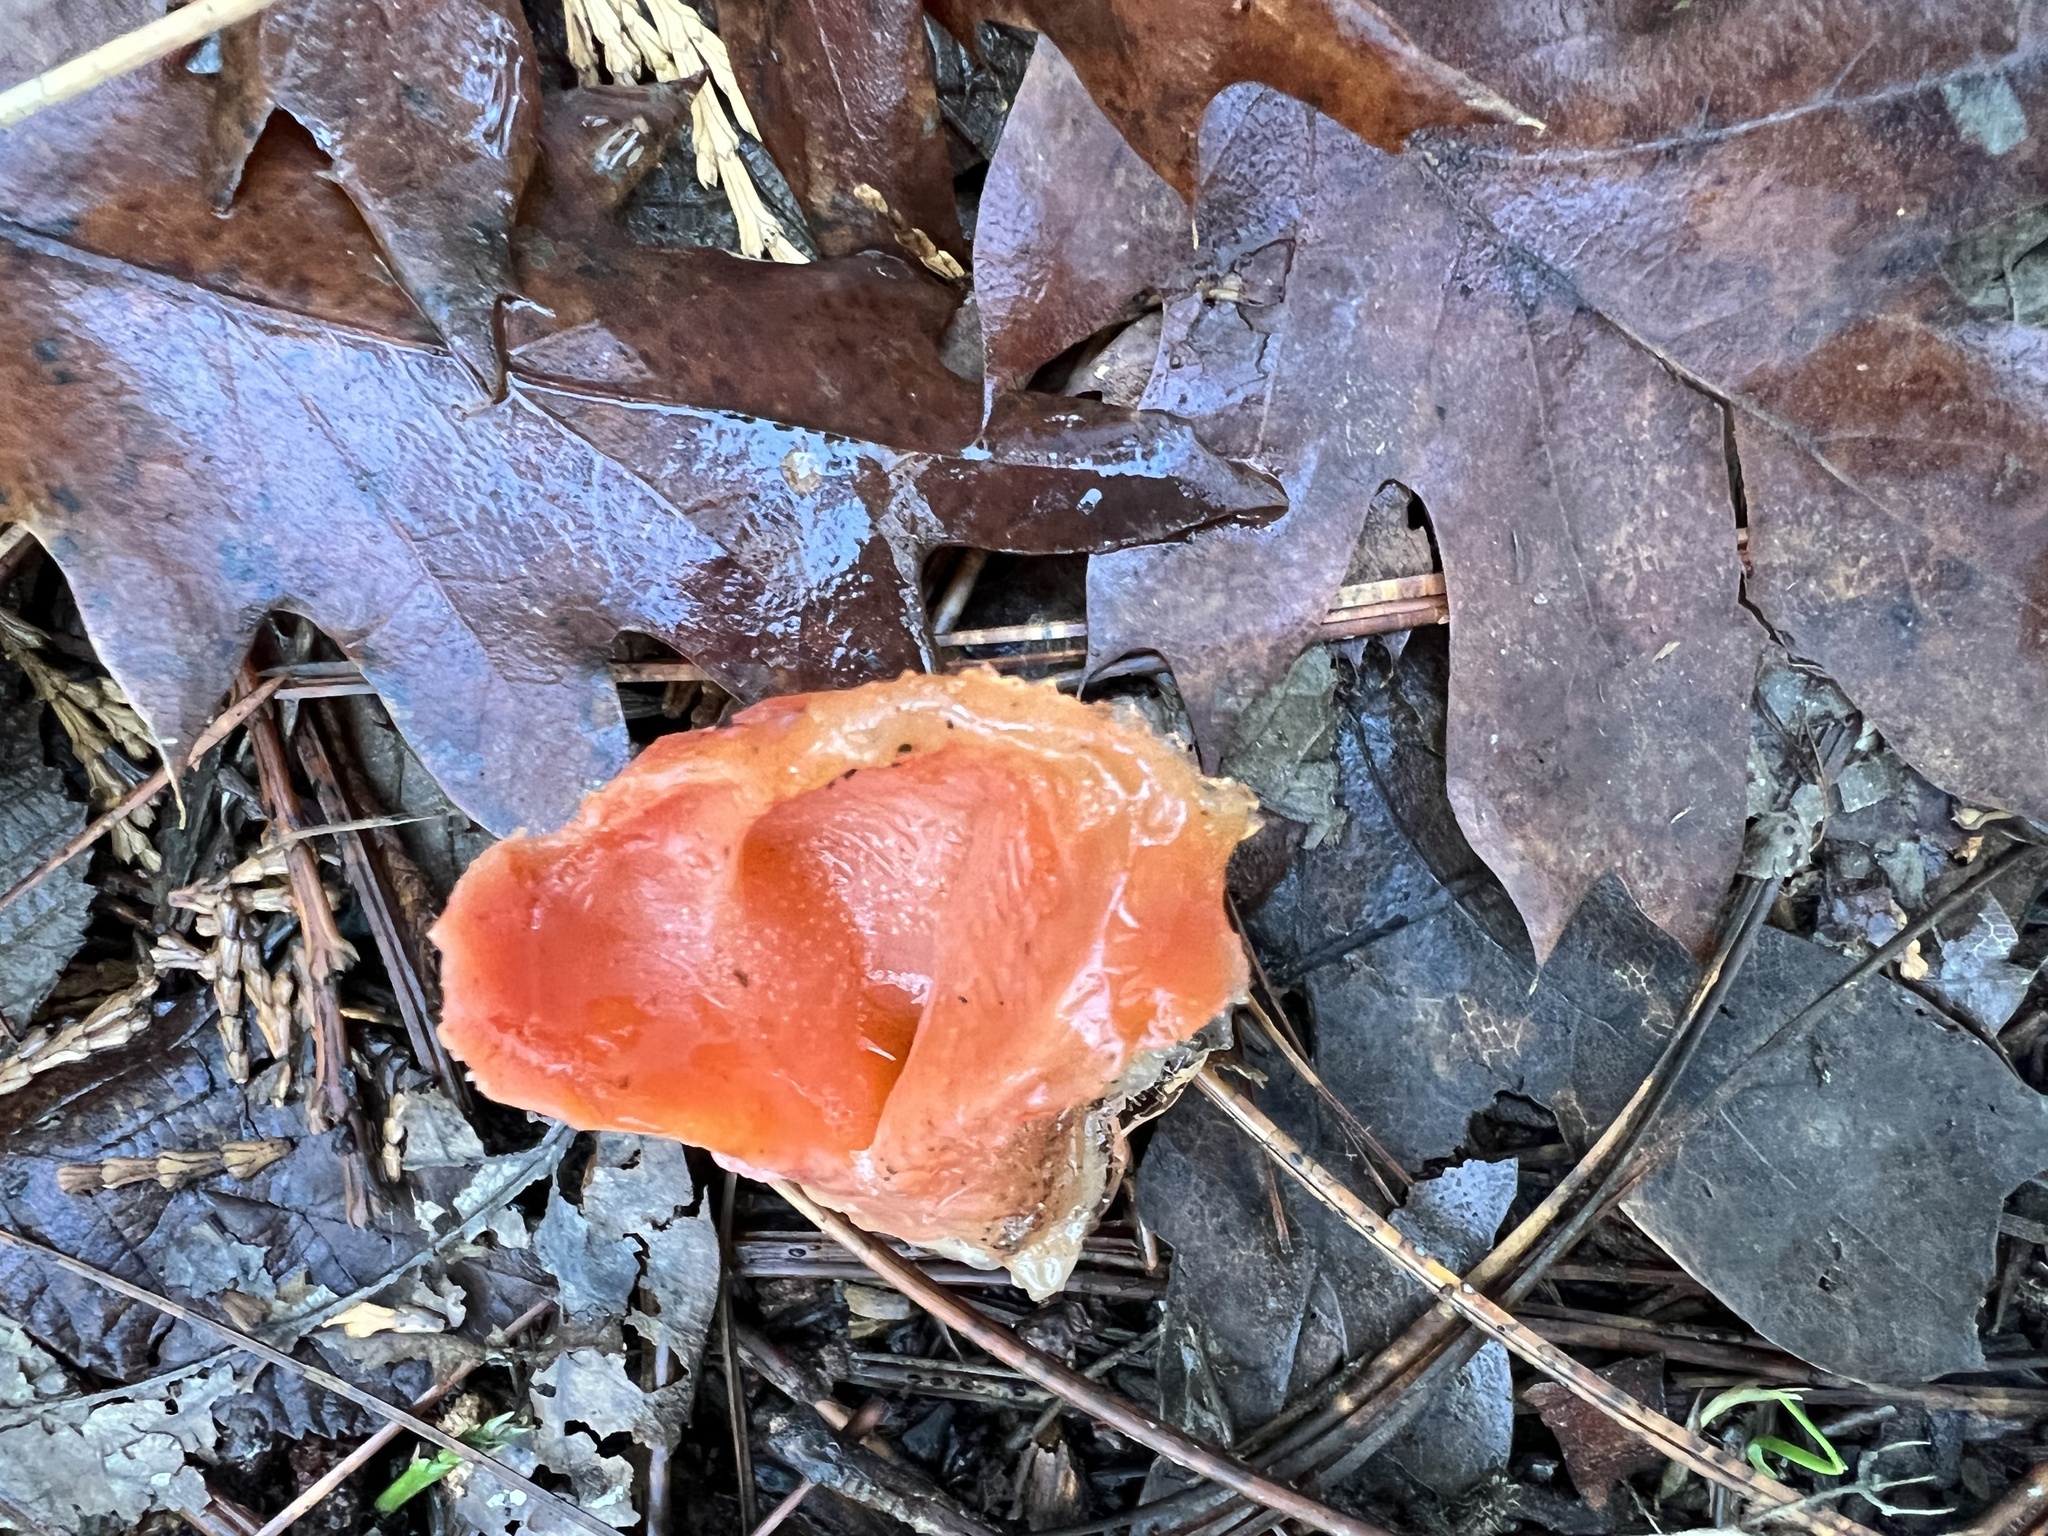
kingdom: Fungi
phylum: Basidiomycota
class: Agaricomycetes
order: Auriculariales
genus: Guepinia
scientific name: Guepinia helvelloides
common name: Salmon salad
